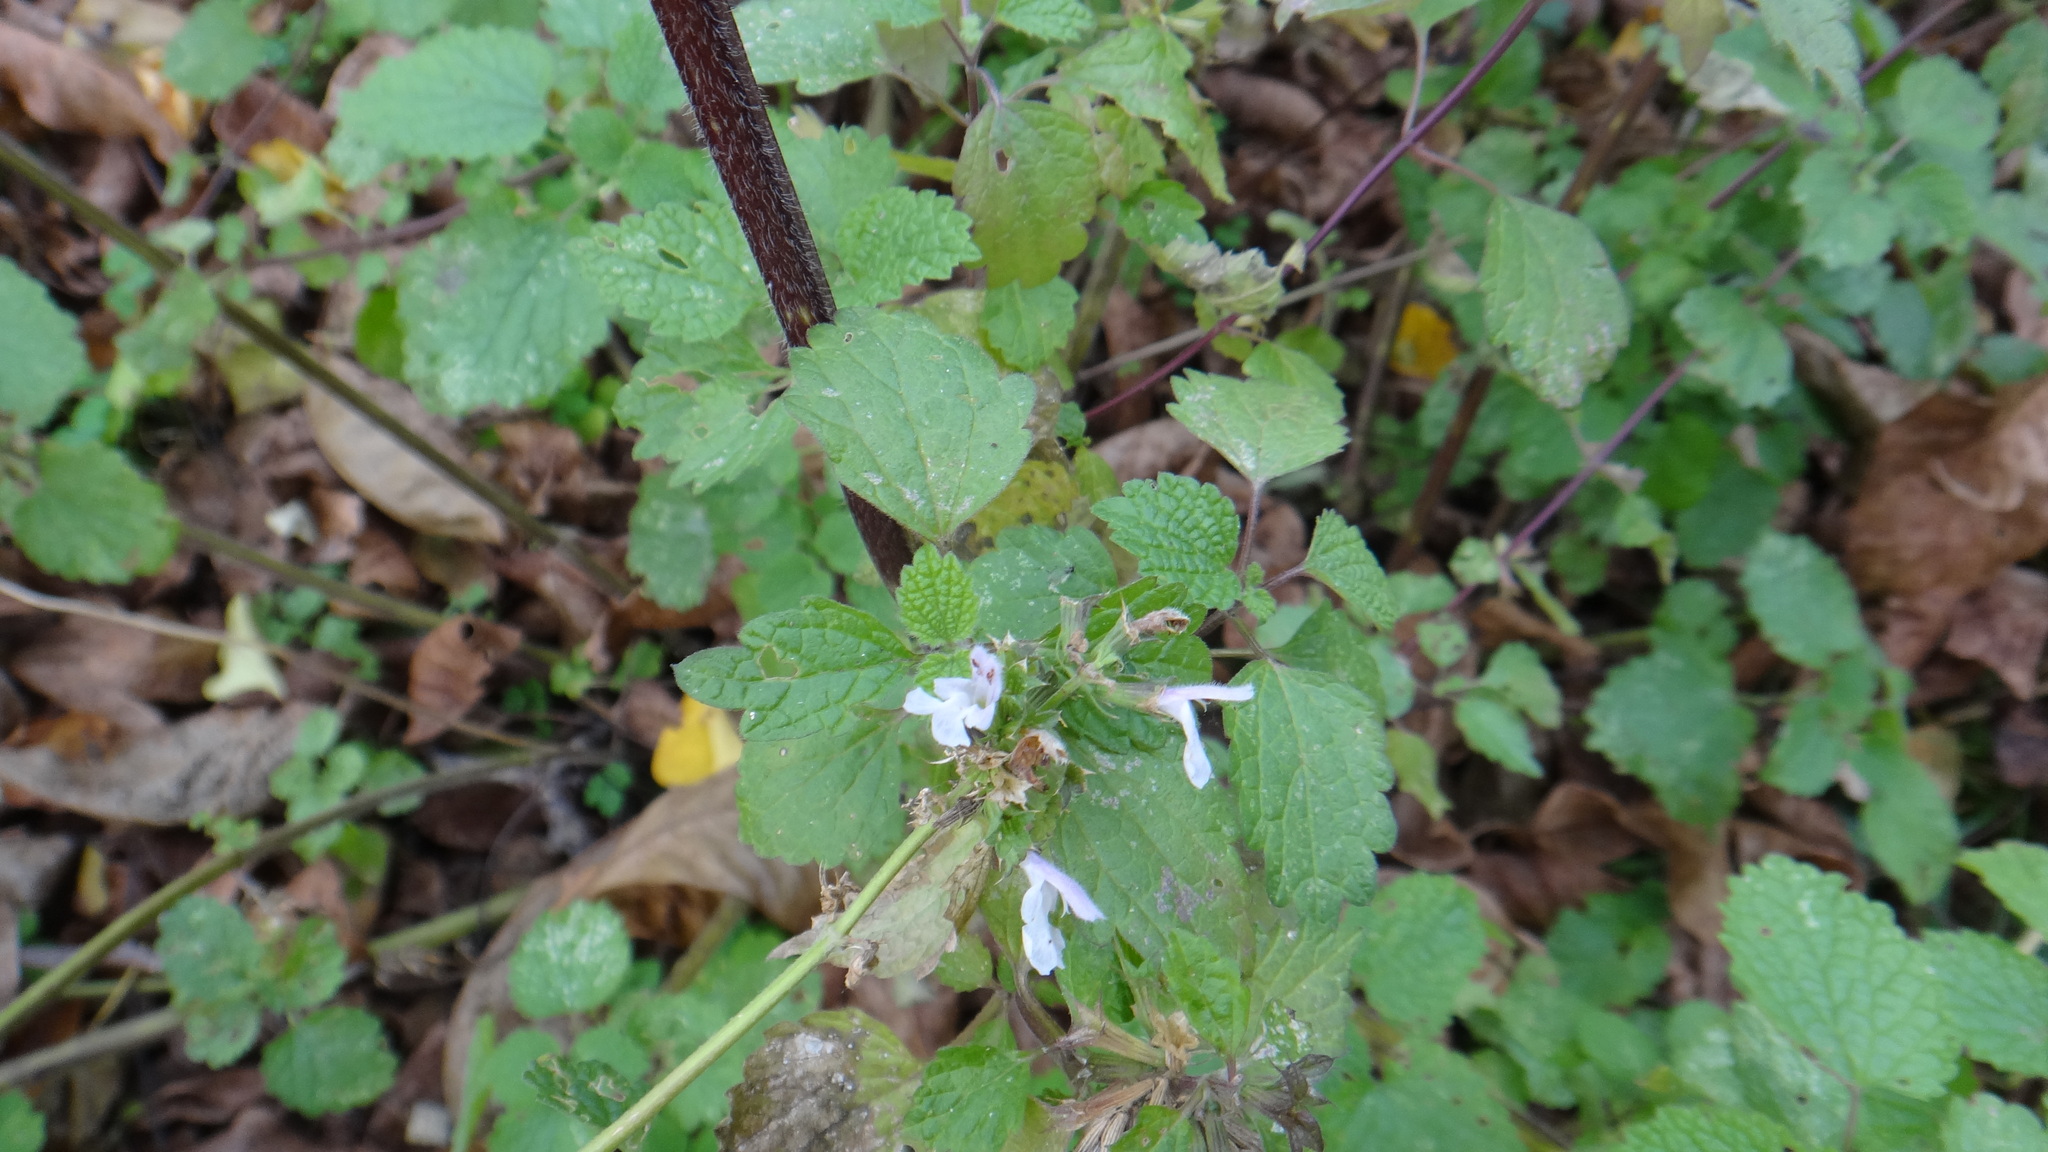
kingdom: Plantae
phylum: Tracheophyta
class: Magnoliopsida
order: Lamiales
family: Lamiaceae
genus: Ballota
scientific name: Ballota nigra
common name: Black horehound
